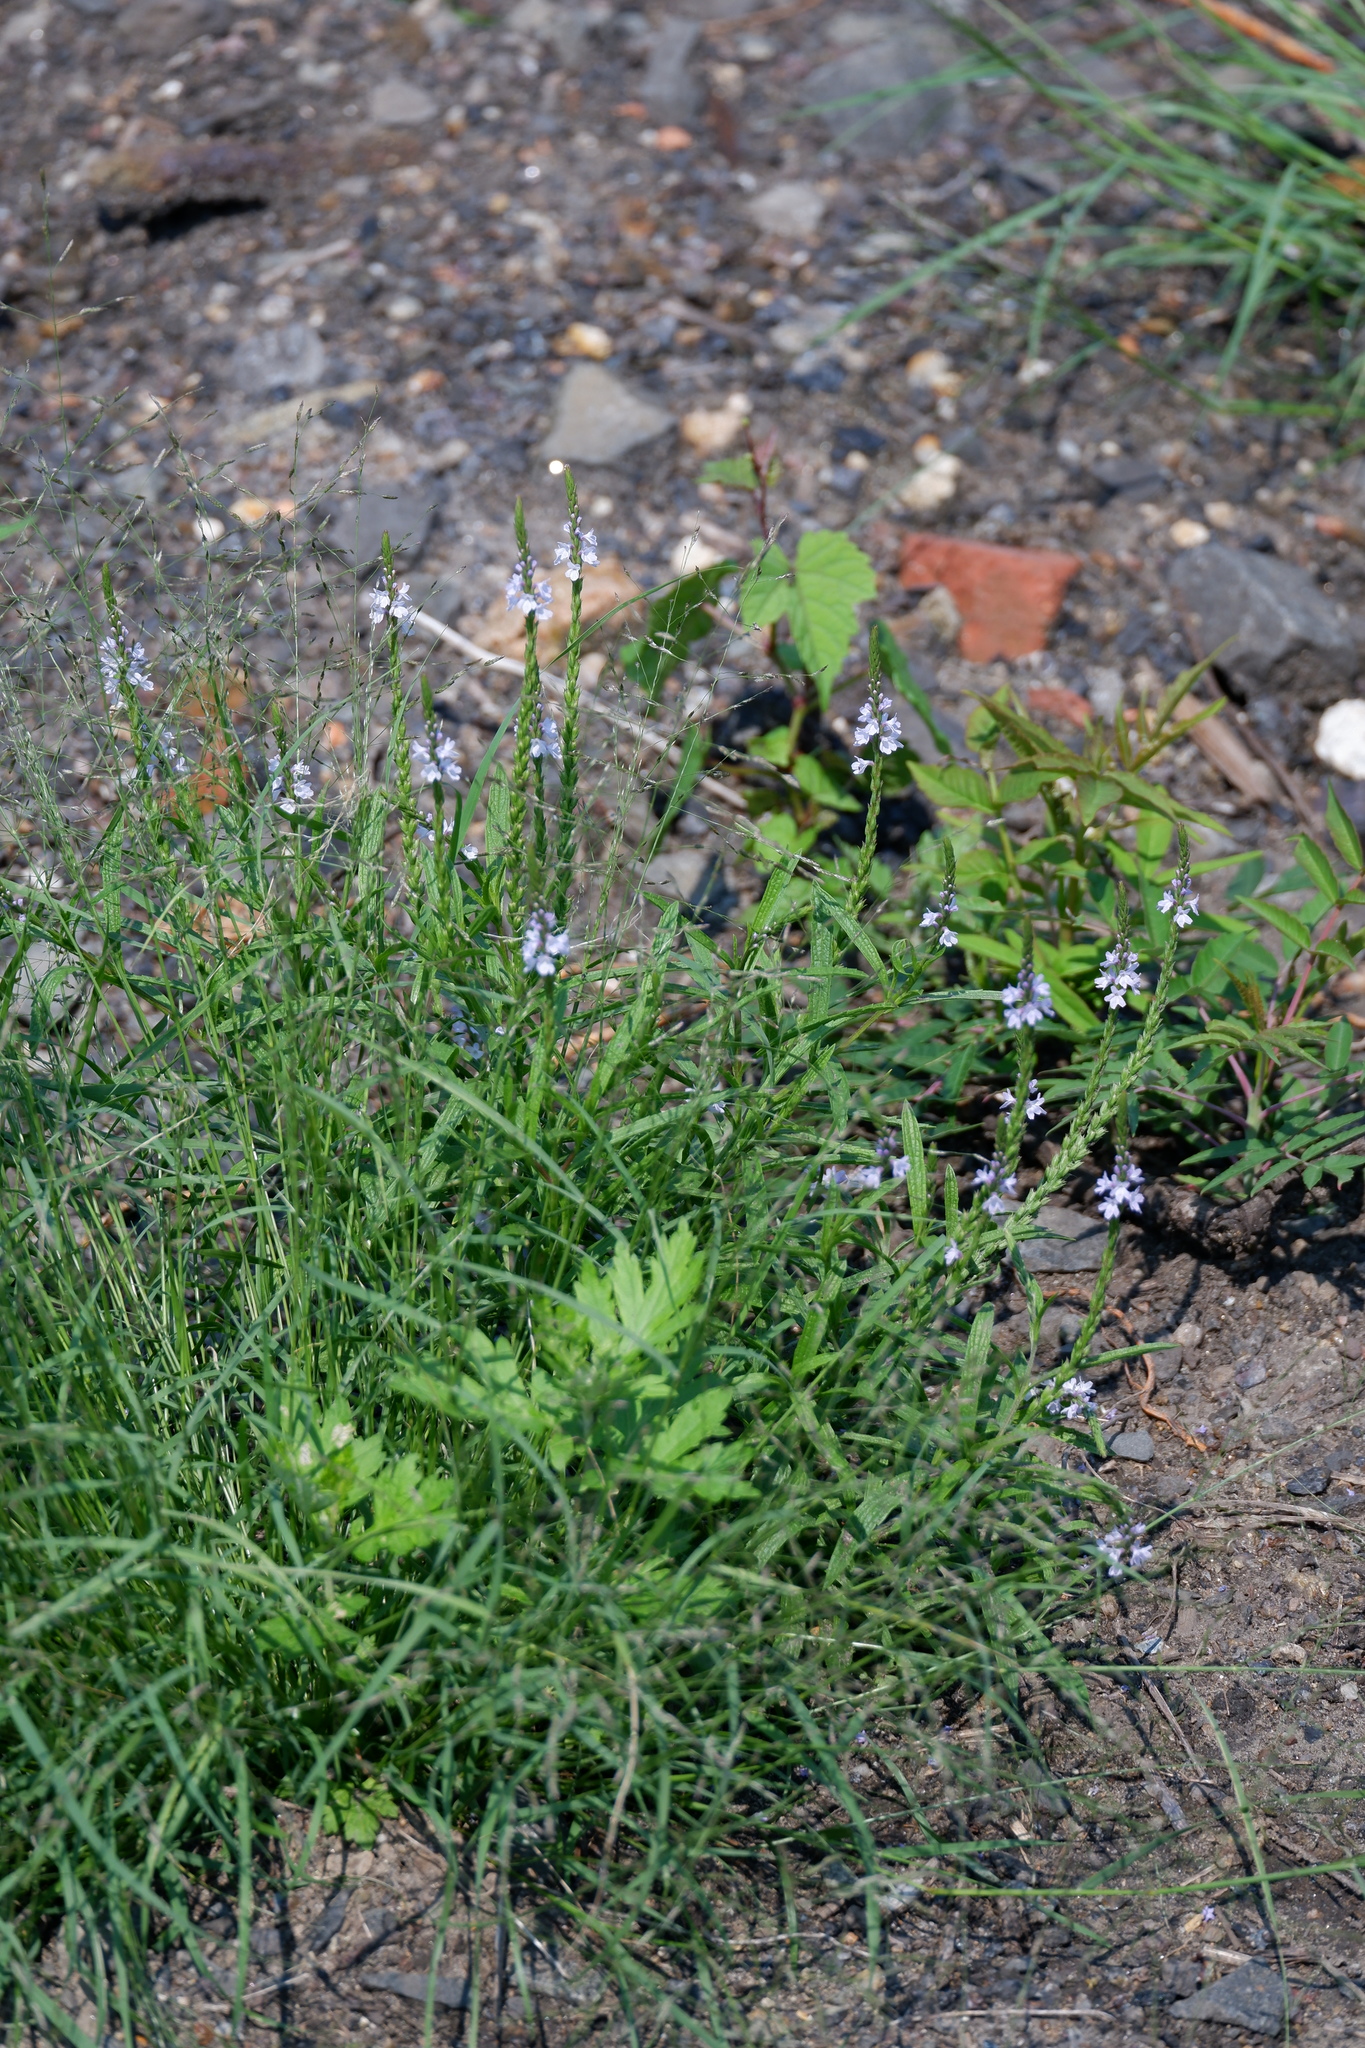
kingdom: Plantae
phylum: Tracheophyta
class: Magnoliopsida
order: Lamiales
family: Verbenaceae
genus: Verbena
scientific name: Verbena simplex
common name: Narrow-leaf vervain
